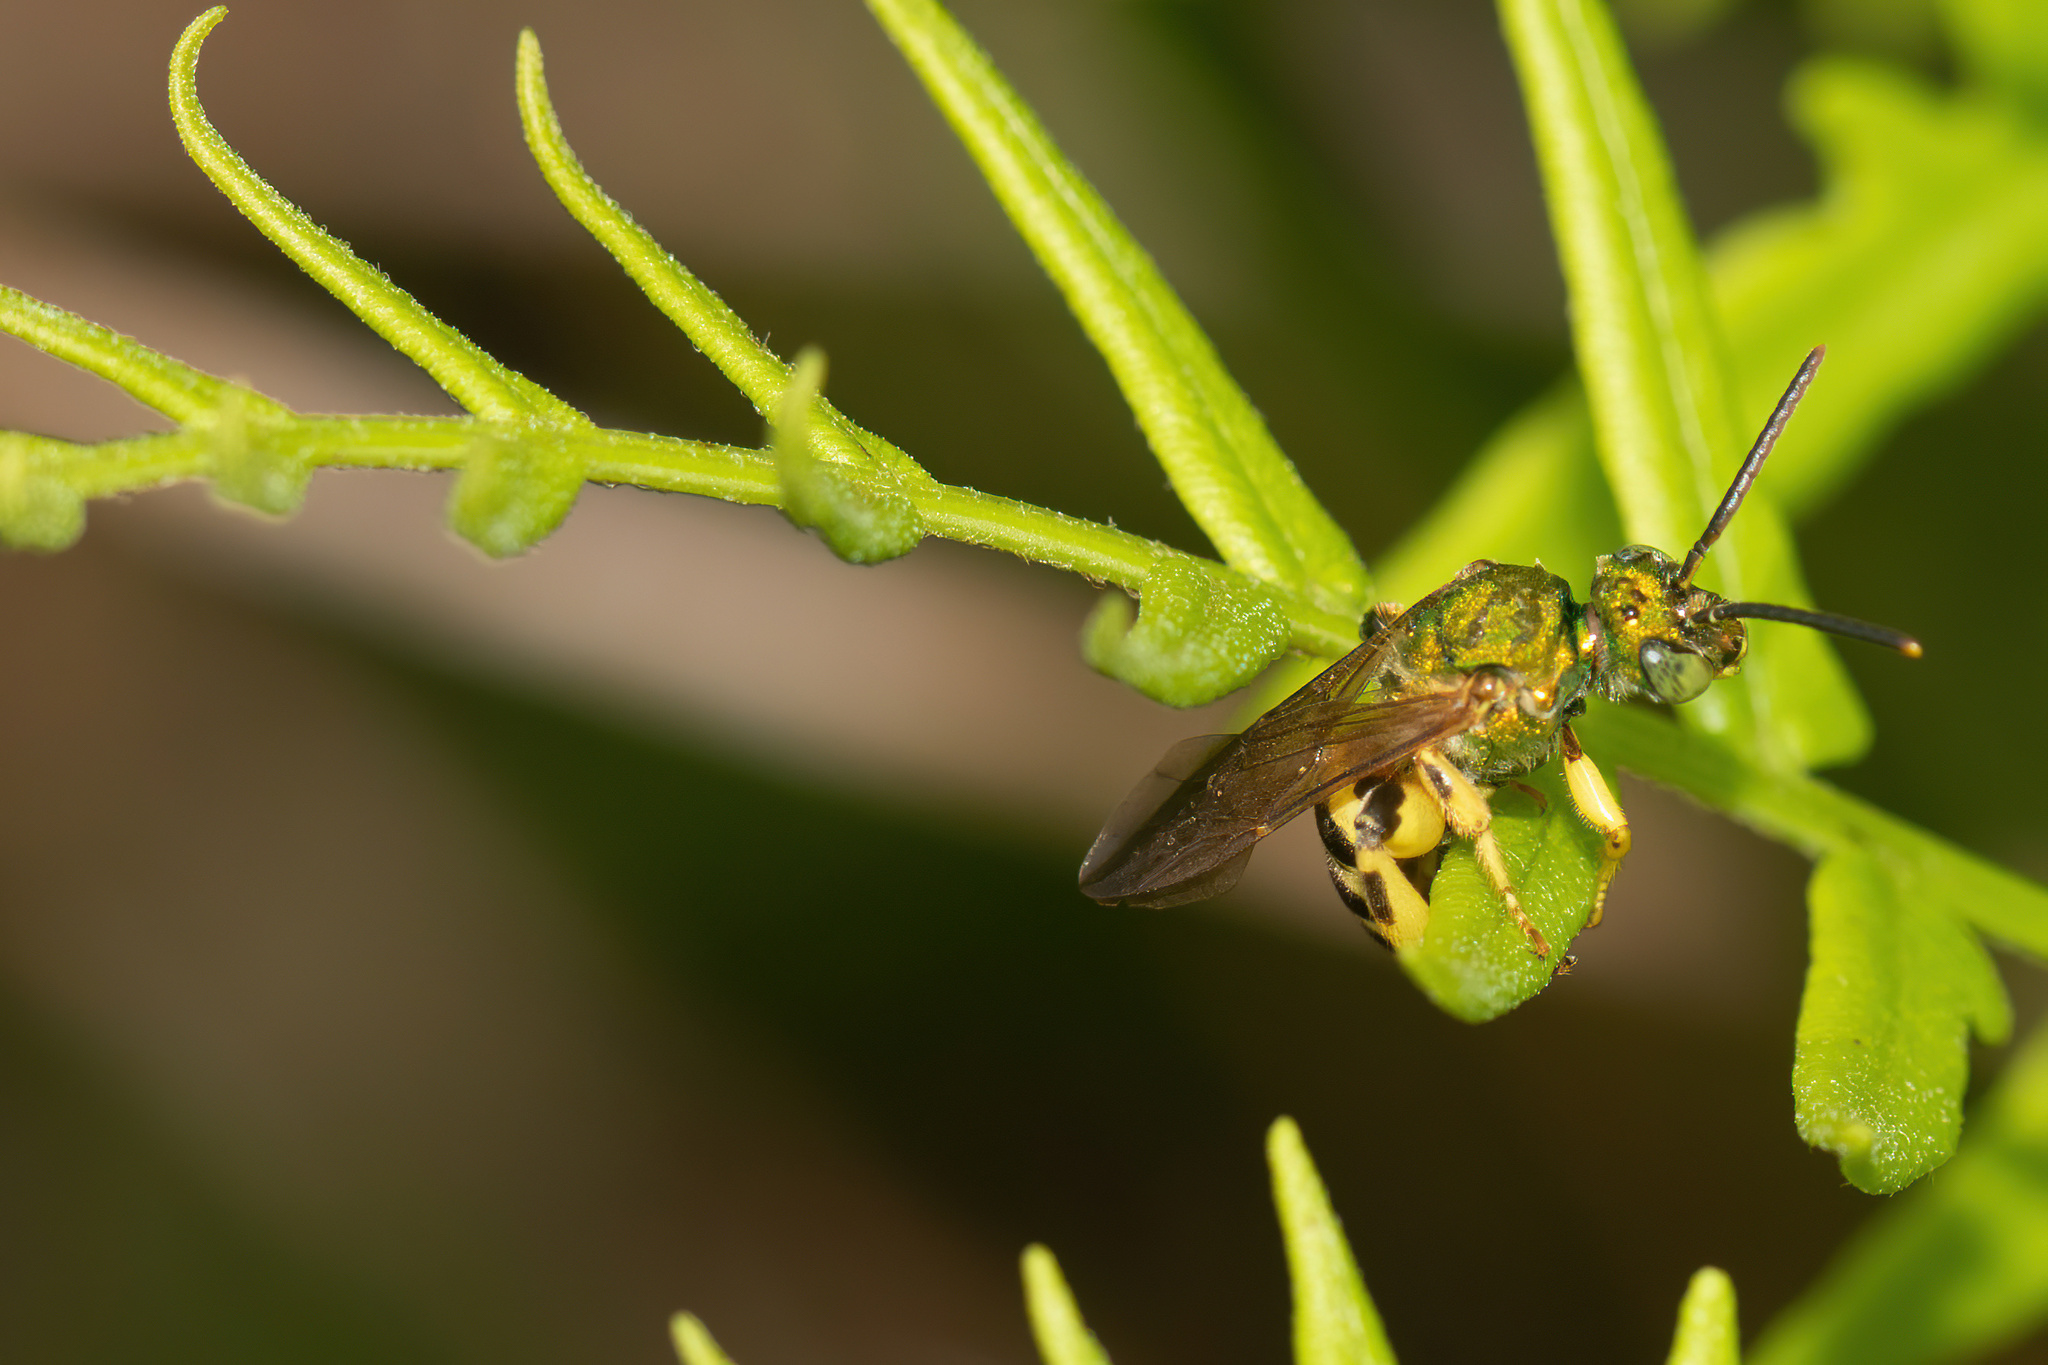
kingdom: Animalia
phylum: Arthropoda
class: Insecta
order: Hymenoptera
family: Halictidae
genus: Agapostemon
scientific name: Agapostemon splendens
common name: Brown-winged striped sweat bee
